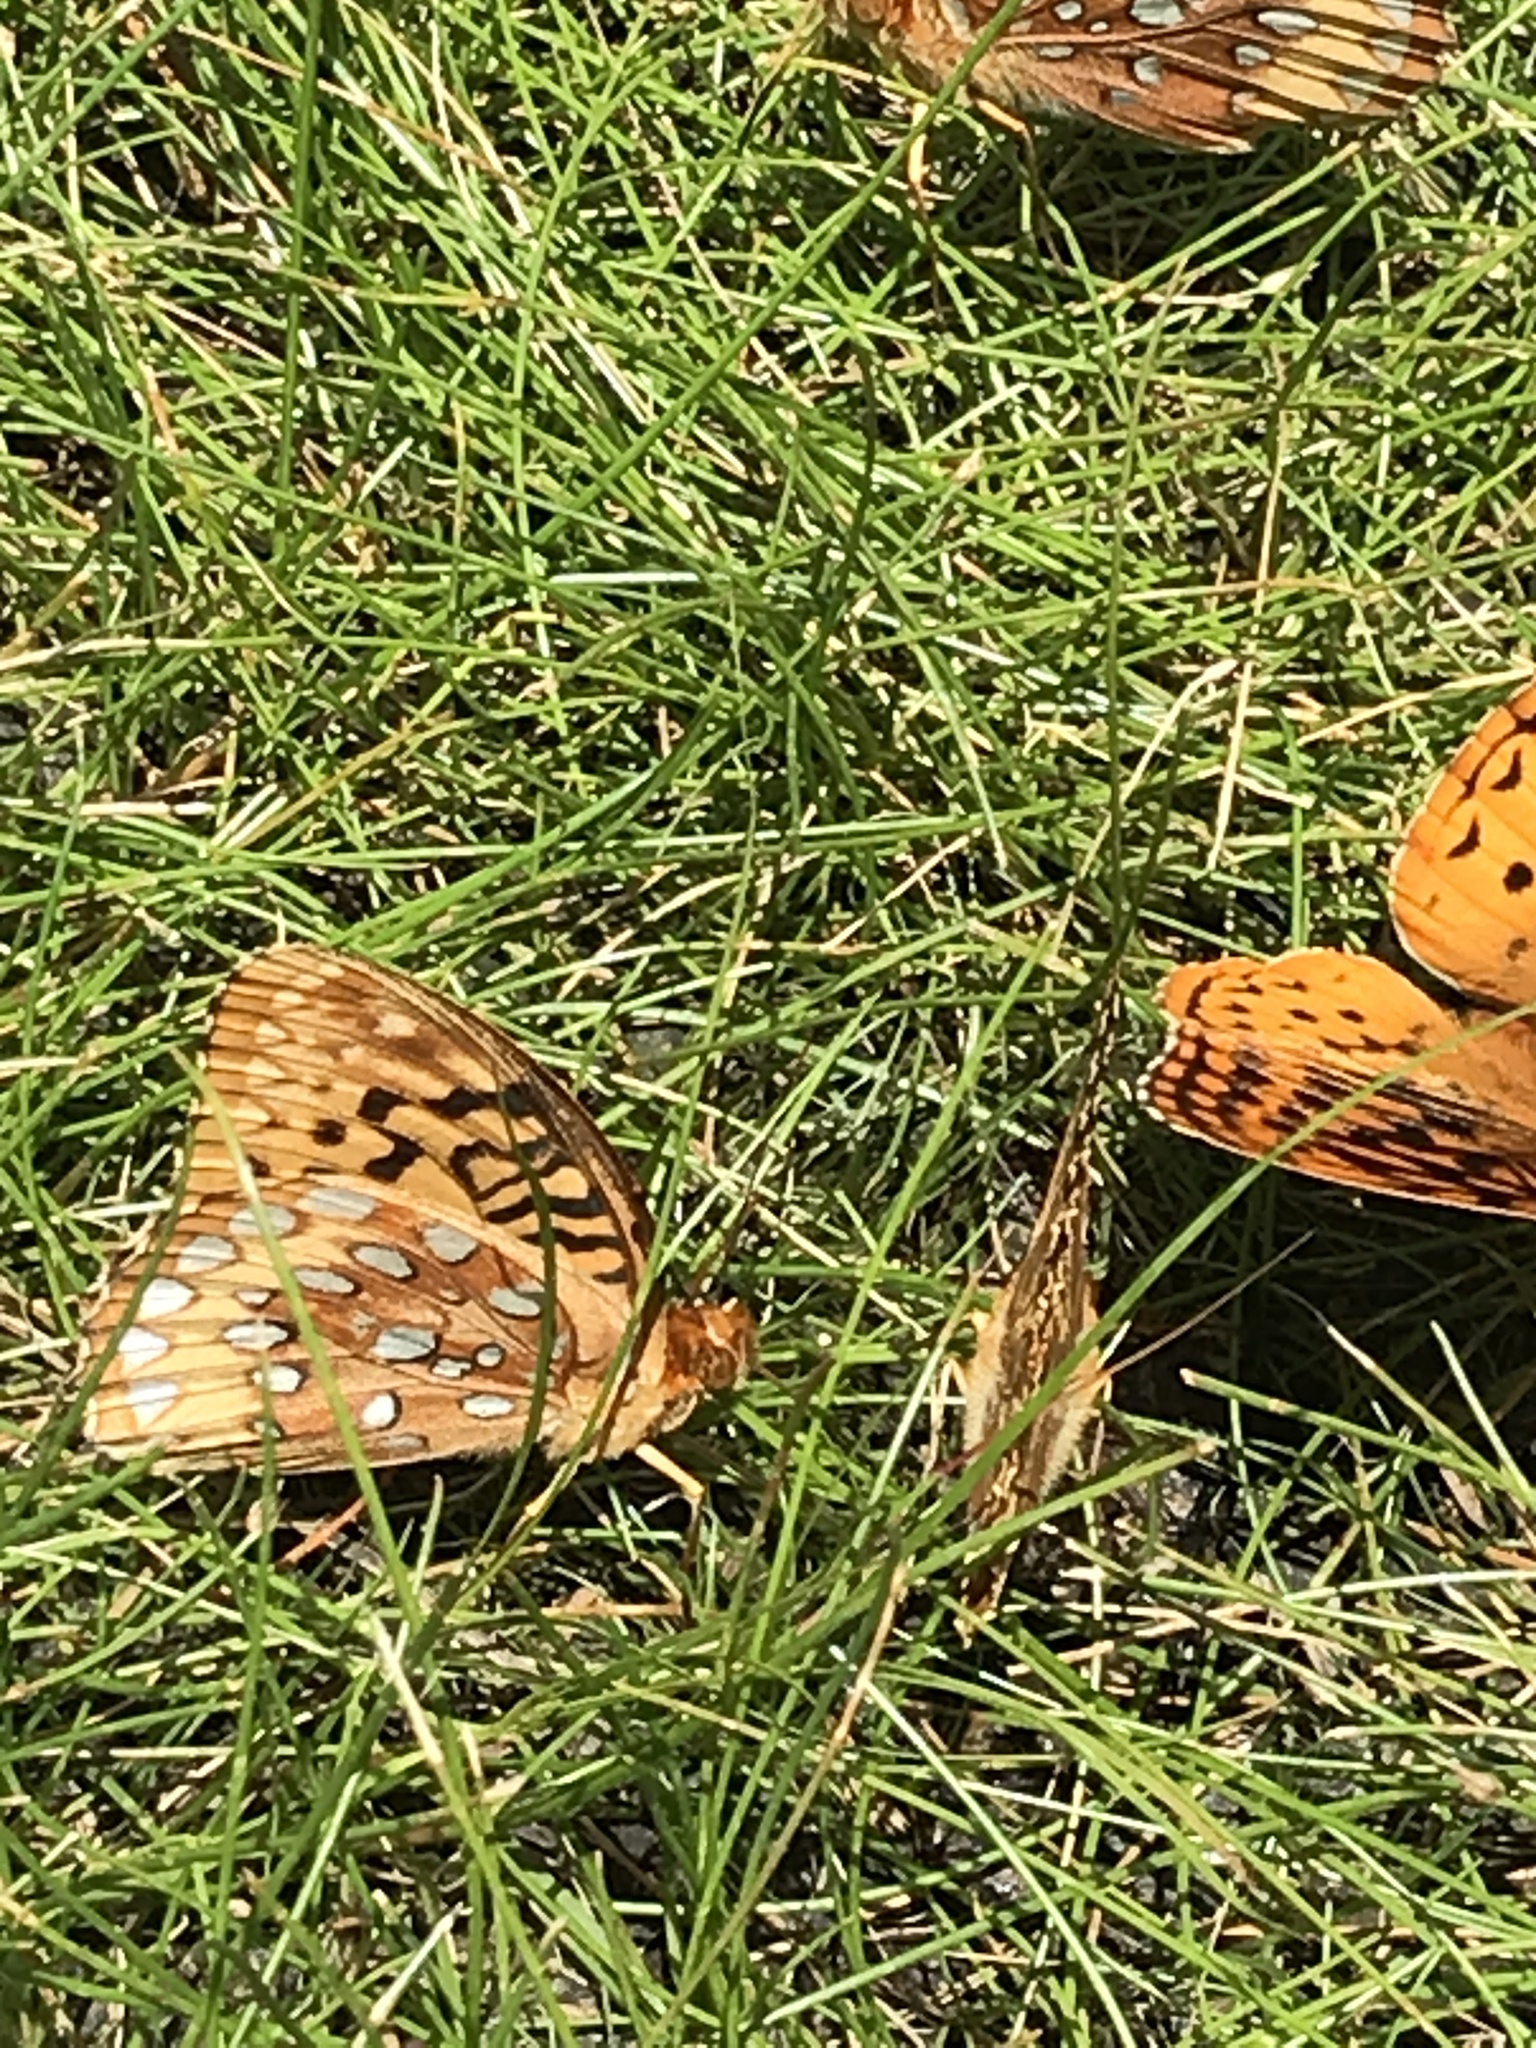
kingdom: Animalia
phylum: Arthropoda
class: Insecta
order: Lepidoptera
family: Nymphalidae
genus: Speyeria
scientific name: Speyeria cybele
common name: Great spangled fritillary
